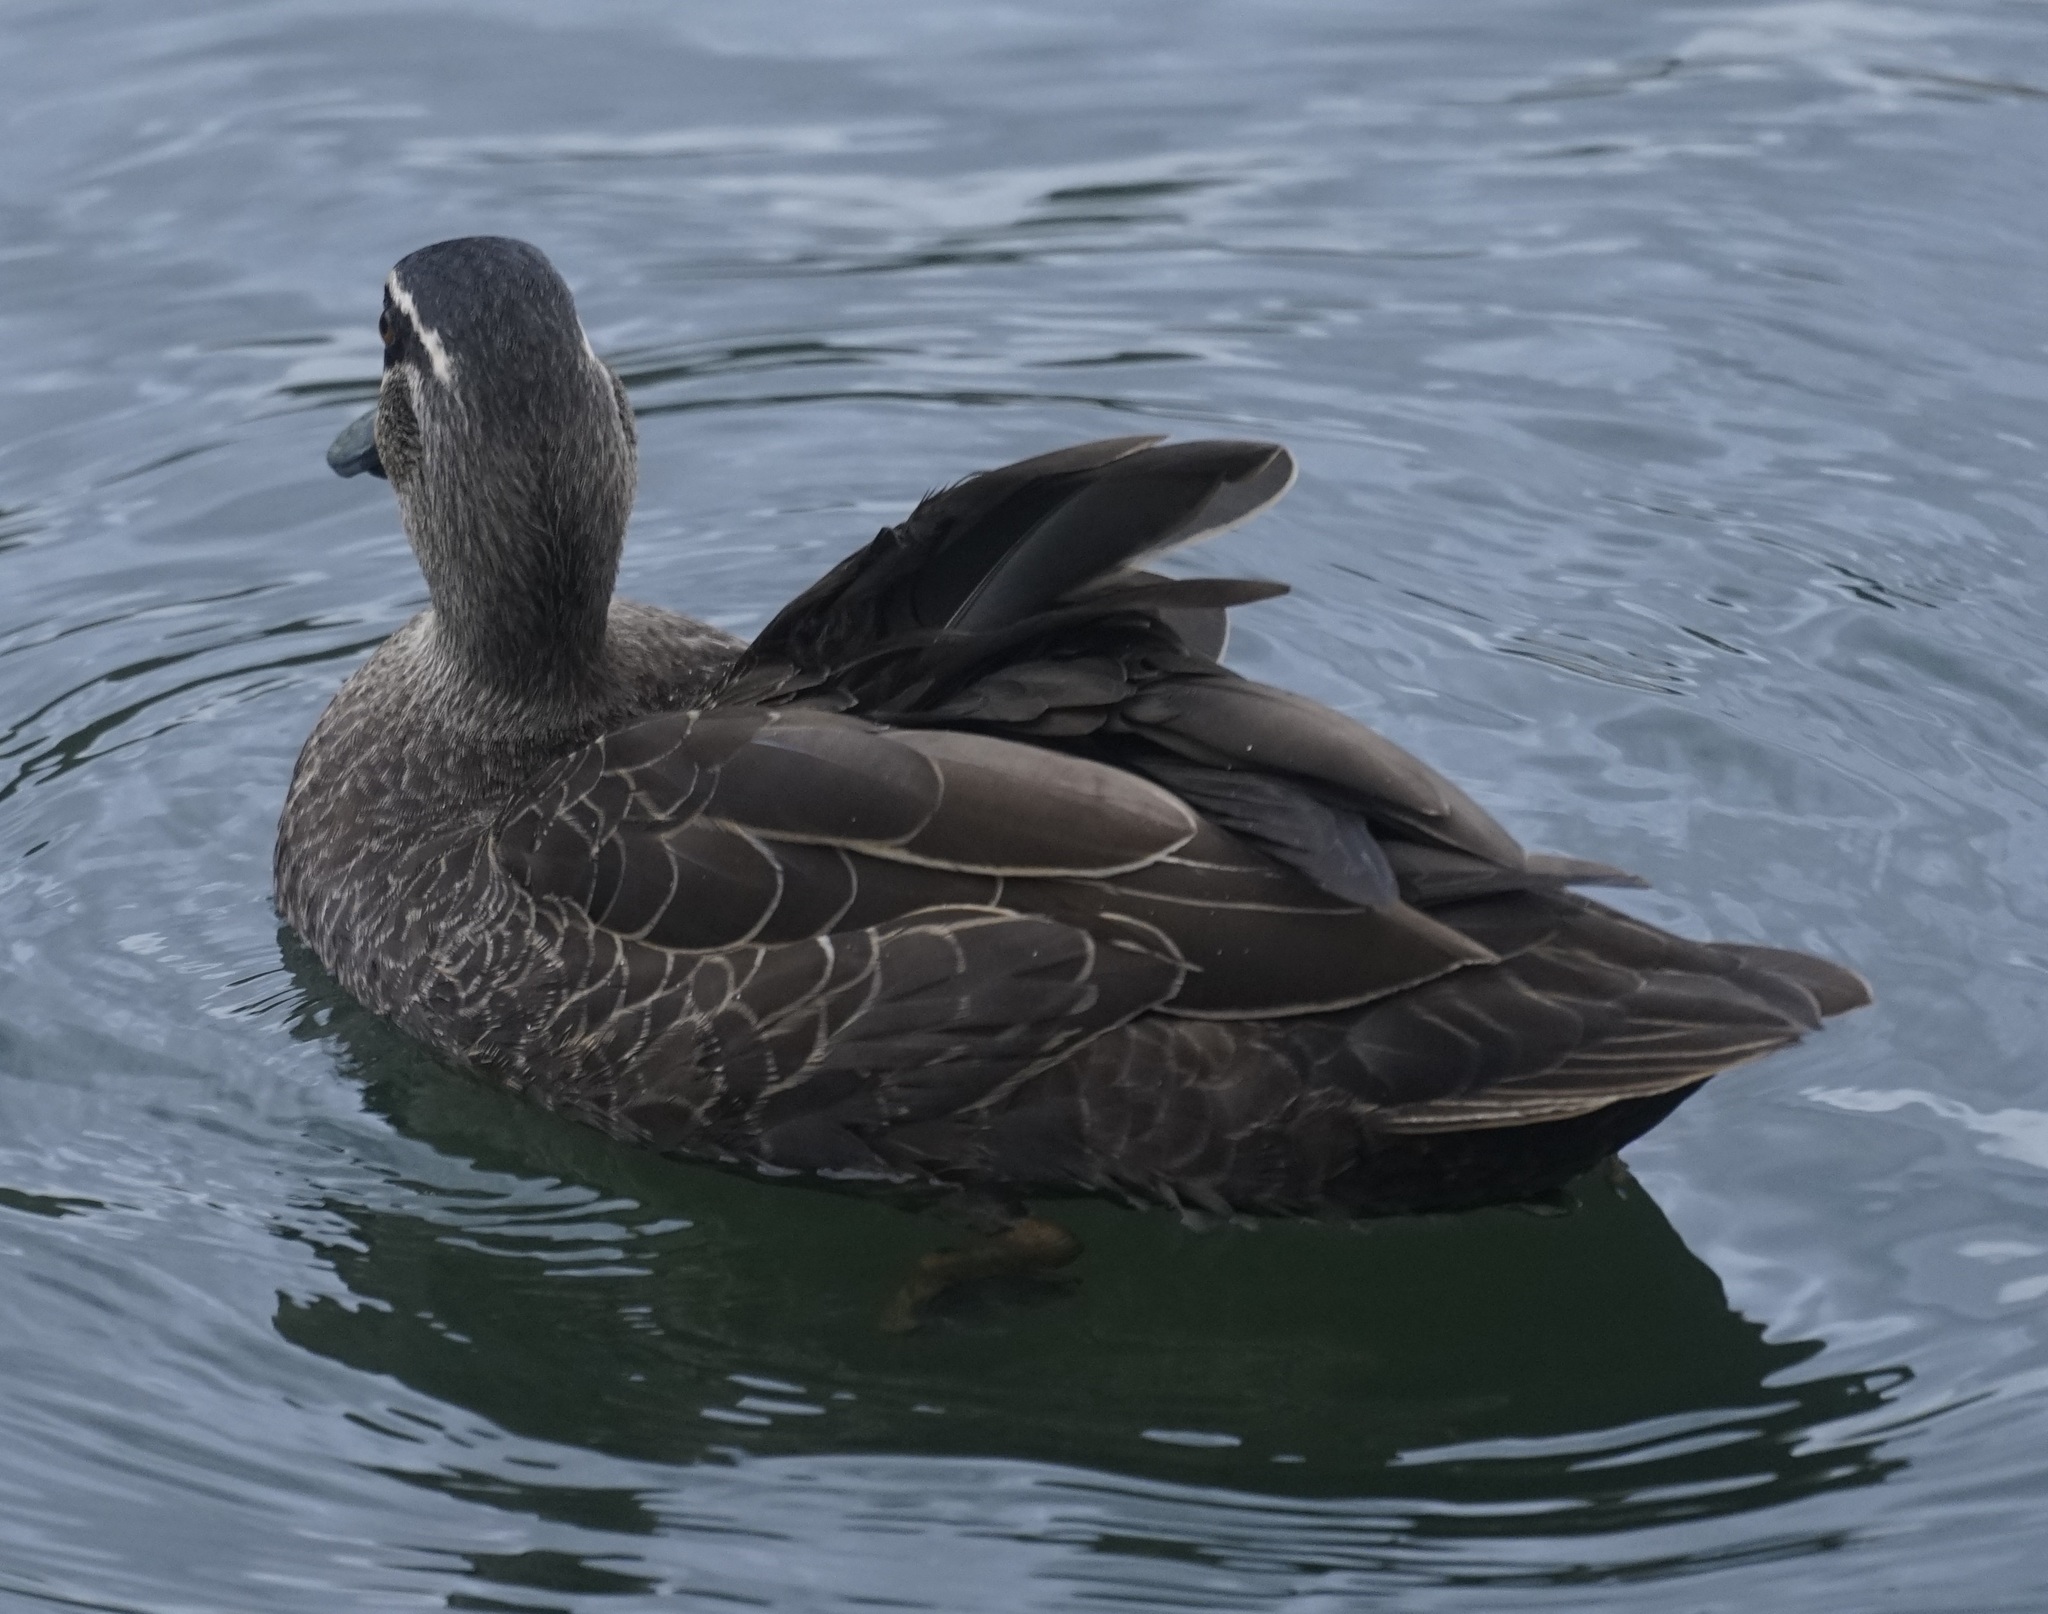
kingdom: Animalia
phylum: Chordata
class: Aves
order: Anseriformes
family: Anatidae
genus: Anas
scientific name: Anas superciliosa
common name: Pacific black duck
